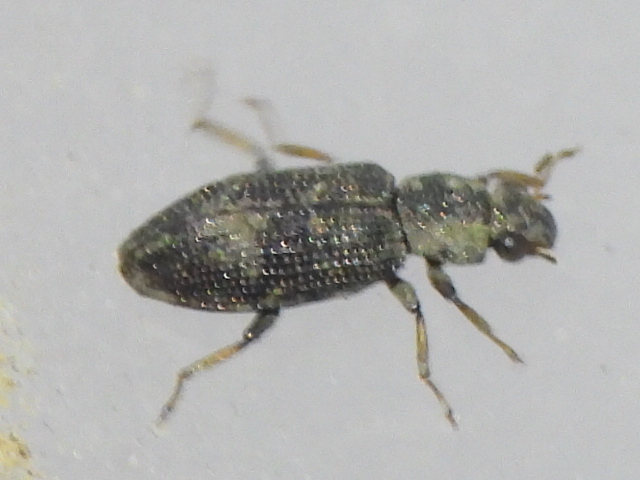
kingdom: Animalia
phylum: Arthropoda
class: Insecta
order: Coleoptera
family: Hydrochidae
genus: Hydrochus
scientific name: Hydrochus
